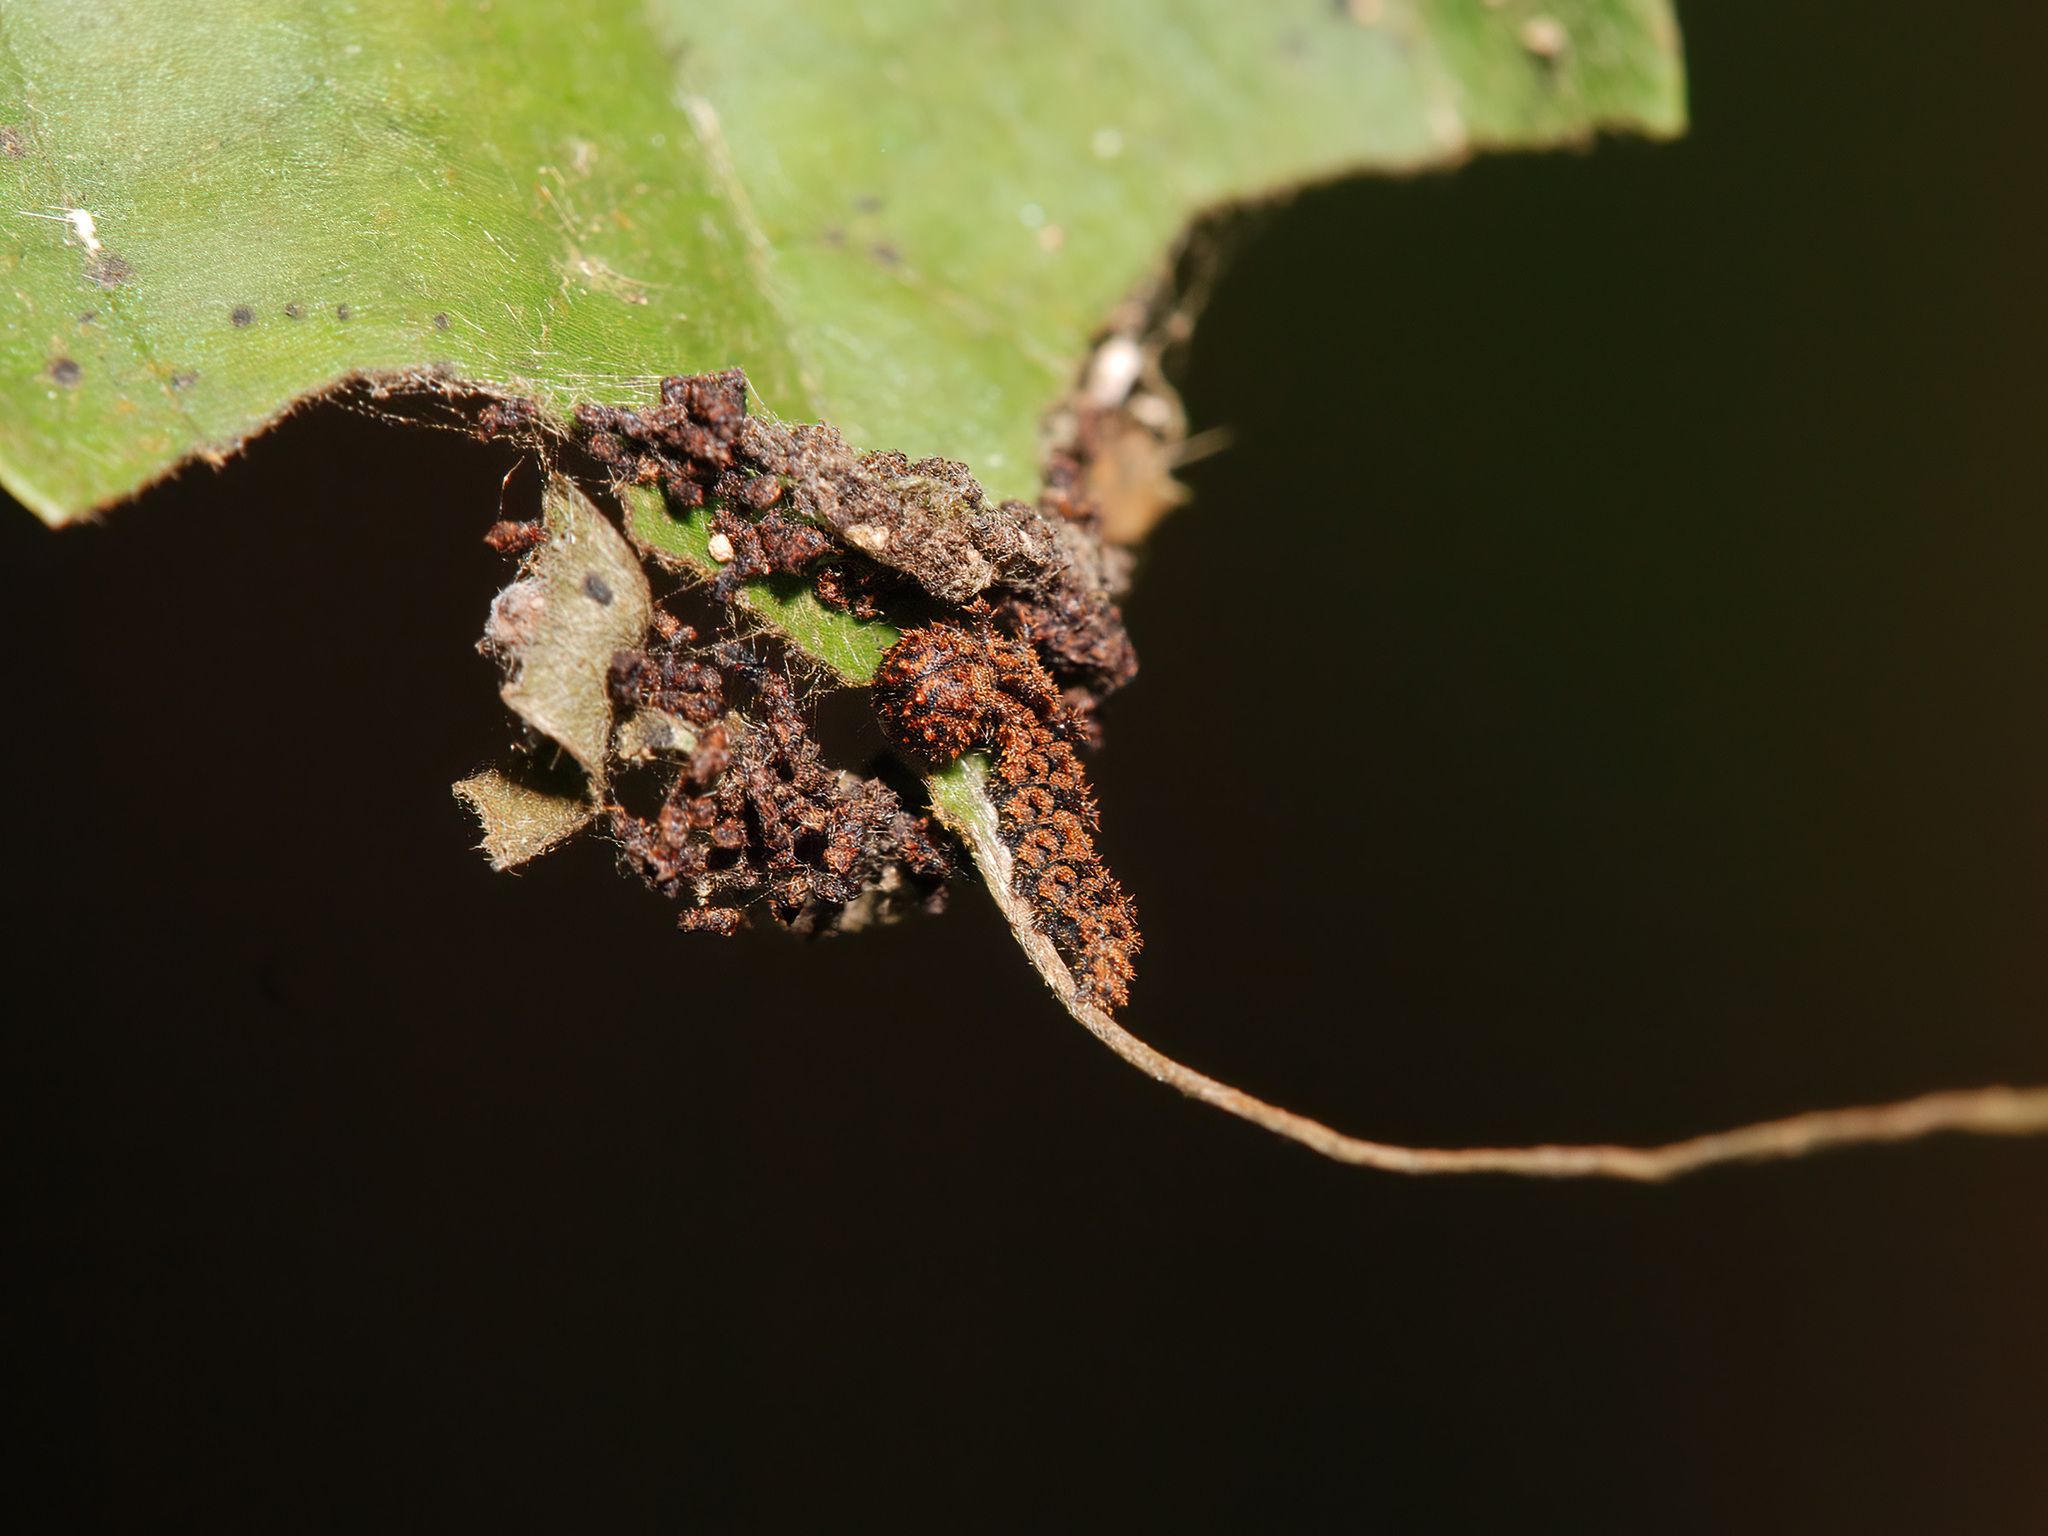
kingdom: Animalia
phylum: Arthropoda
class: Insecta
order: Lepidoptera
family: Nymphalidae
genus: Limenitis
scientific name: Limenitis Moduza procris
